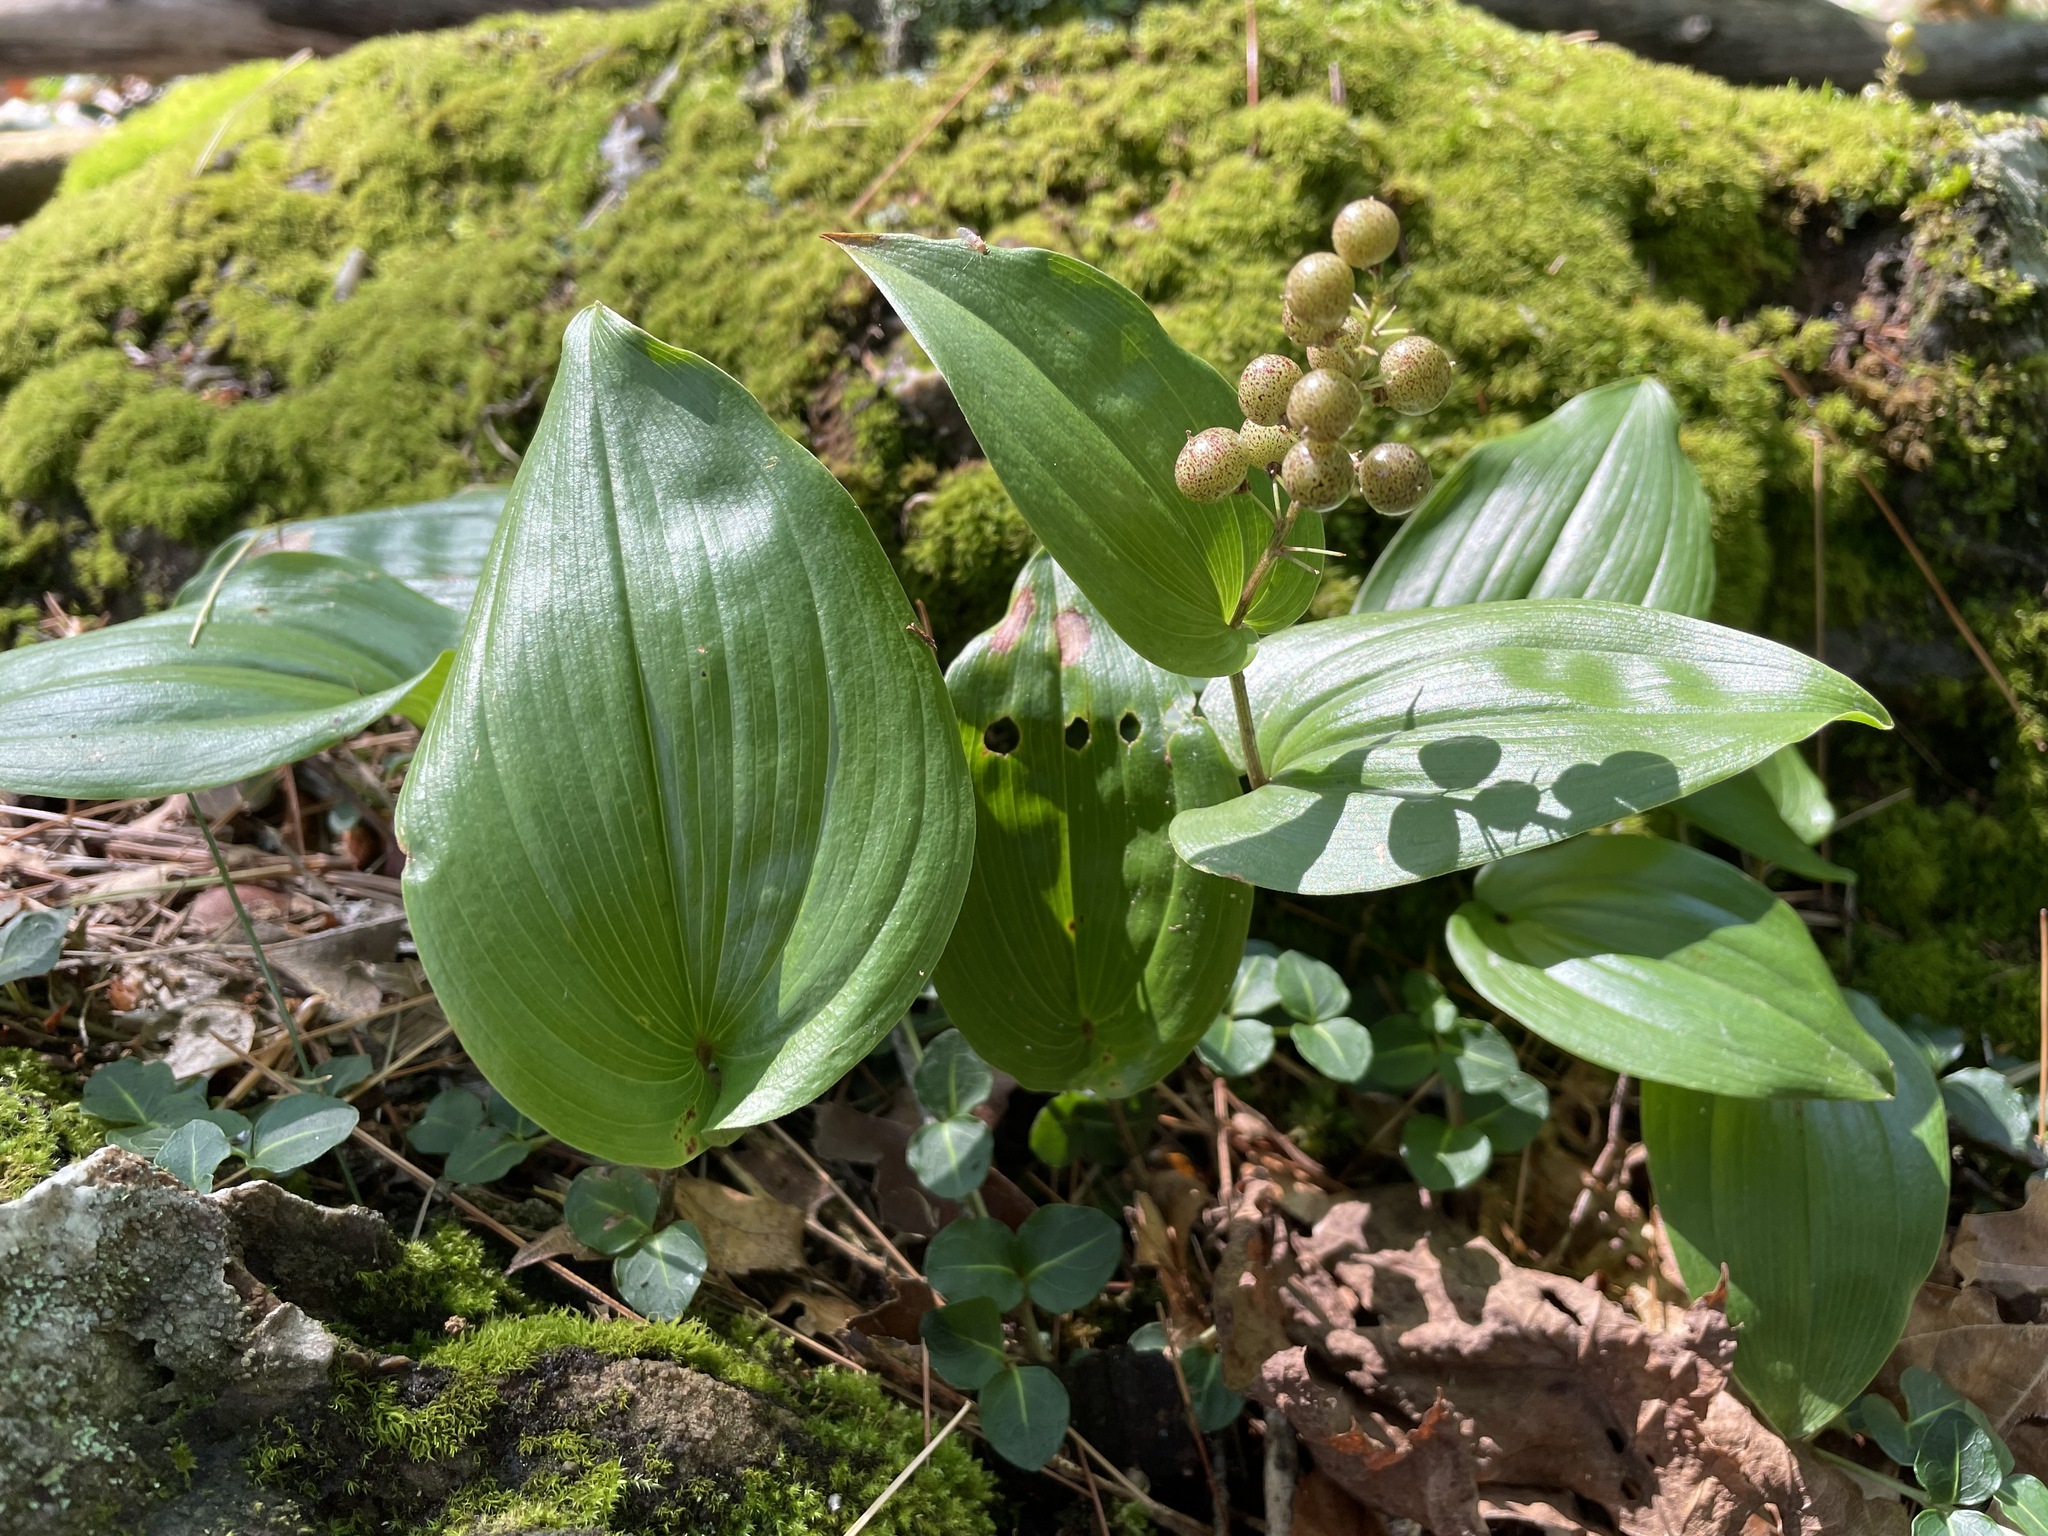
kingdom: Plantae
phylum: Tracheophyta
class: Liliopsida
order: Asparagales
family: Asparagaceae
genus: Maianthemum
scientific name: Maianthemum canadense
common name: False lily-of-the-valley
